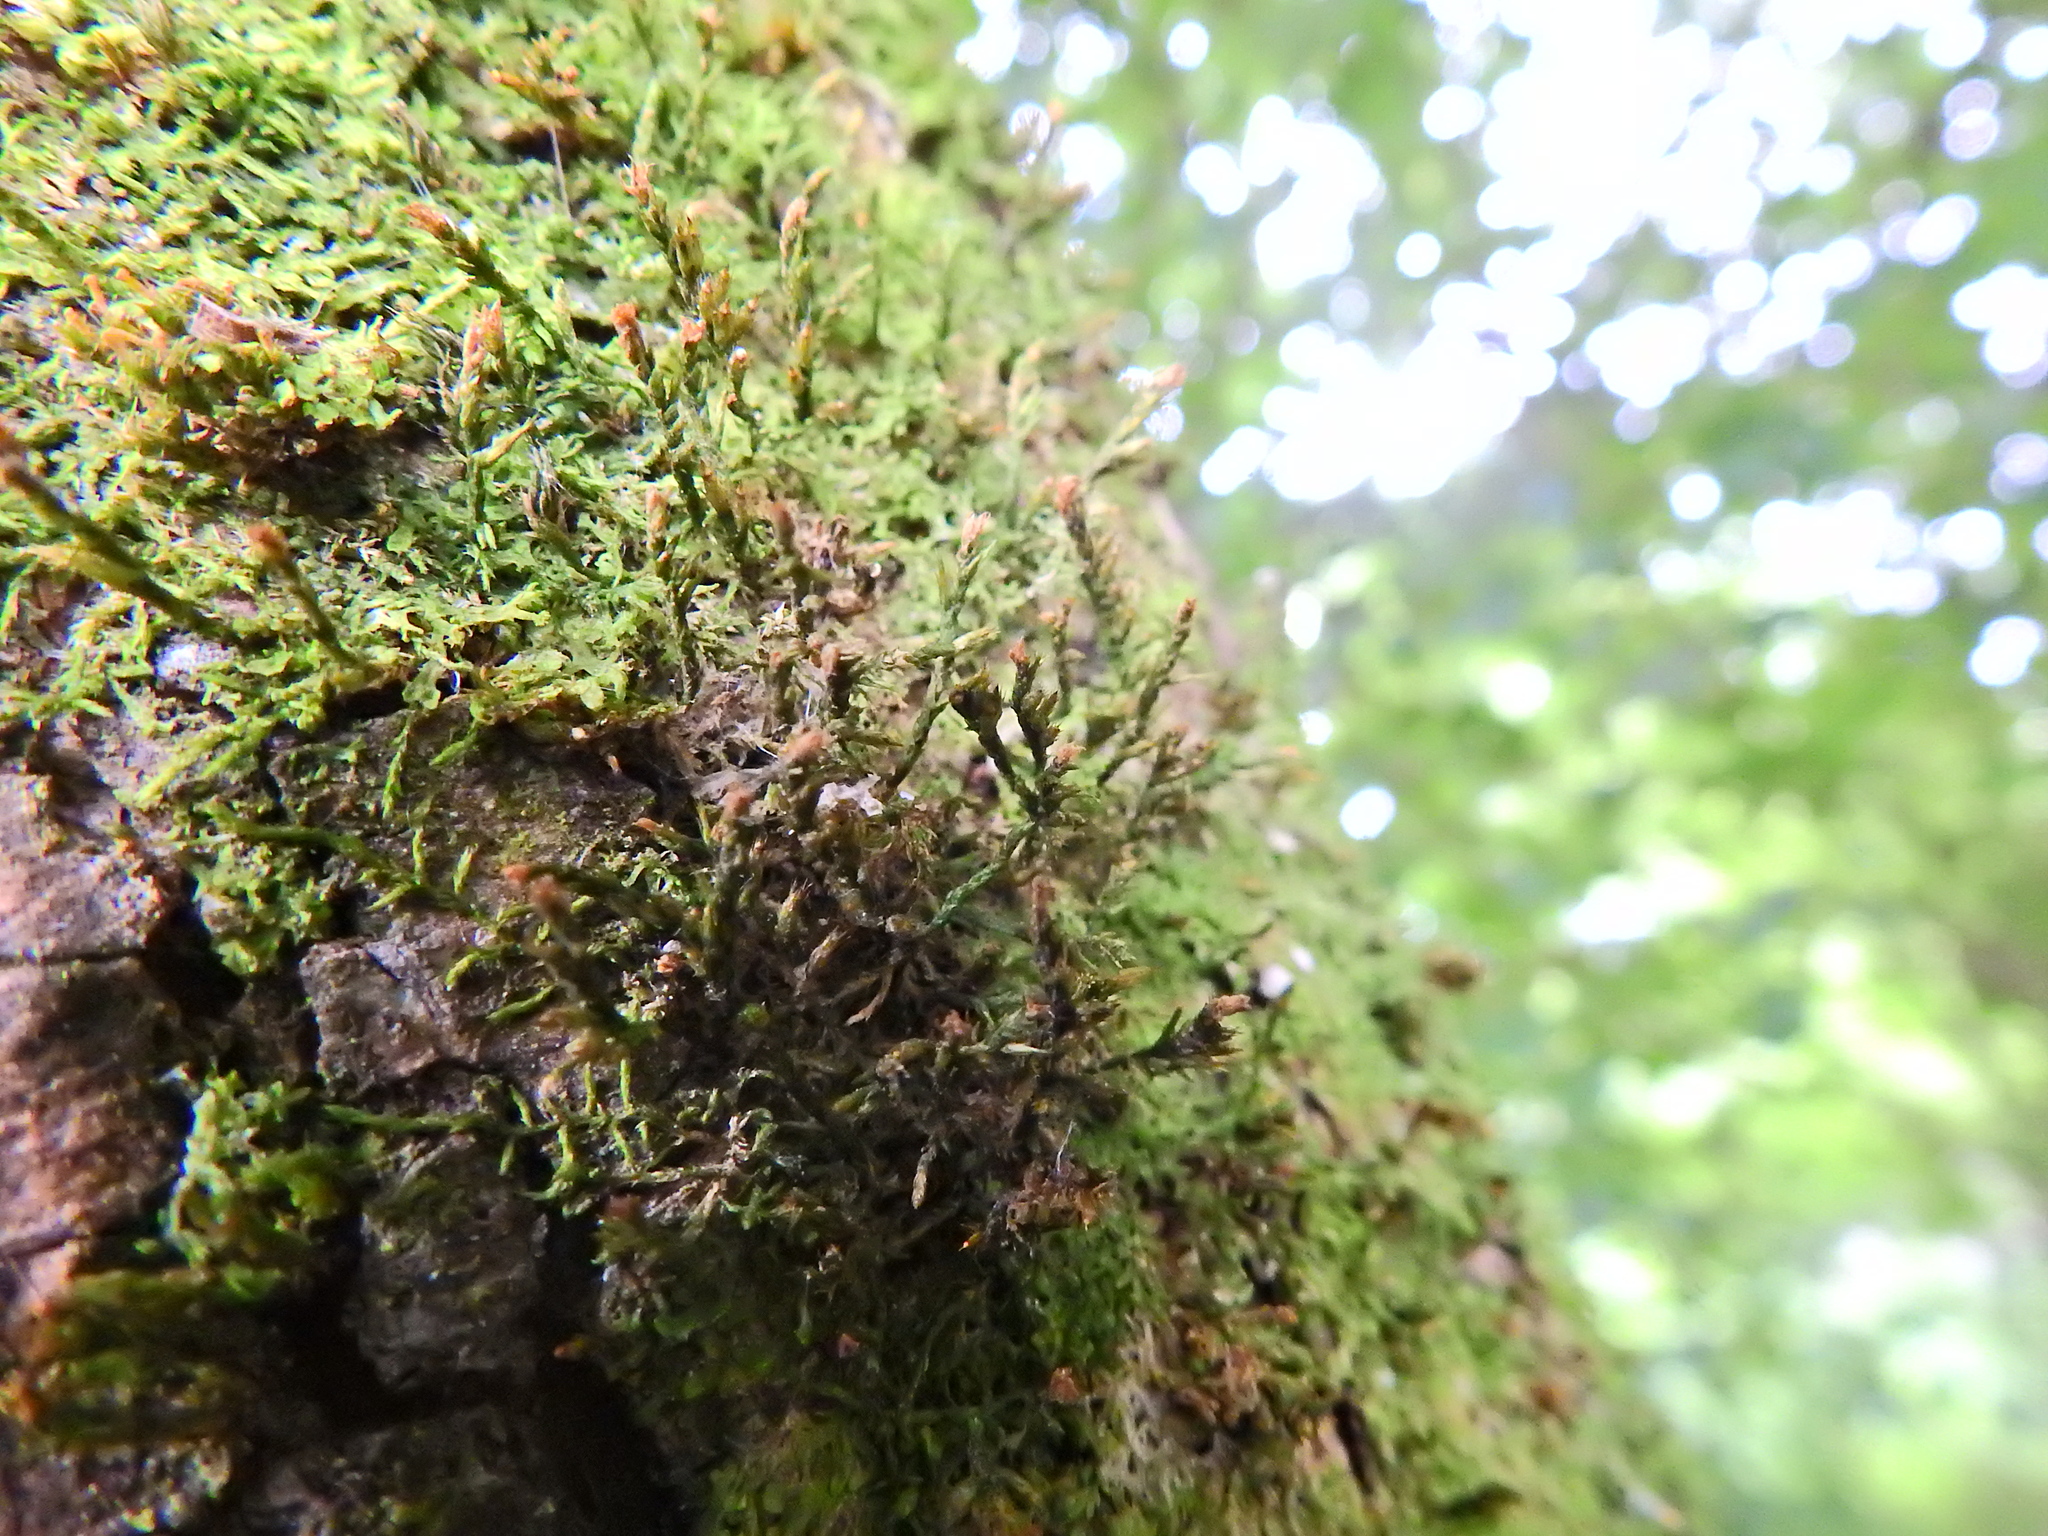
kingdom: Plantae
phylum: Bryophyta
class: Bryopsida
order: Hypnales
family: Cryphaeaceae
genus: Cryphaea
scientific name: Cryphaea heteromalla
